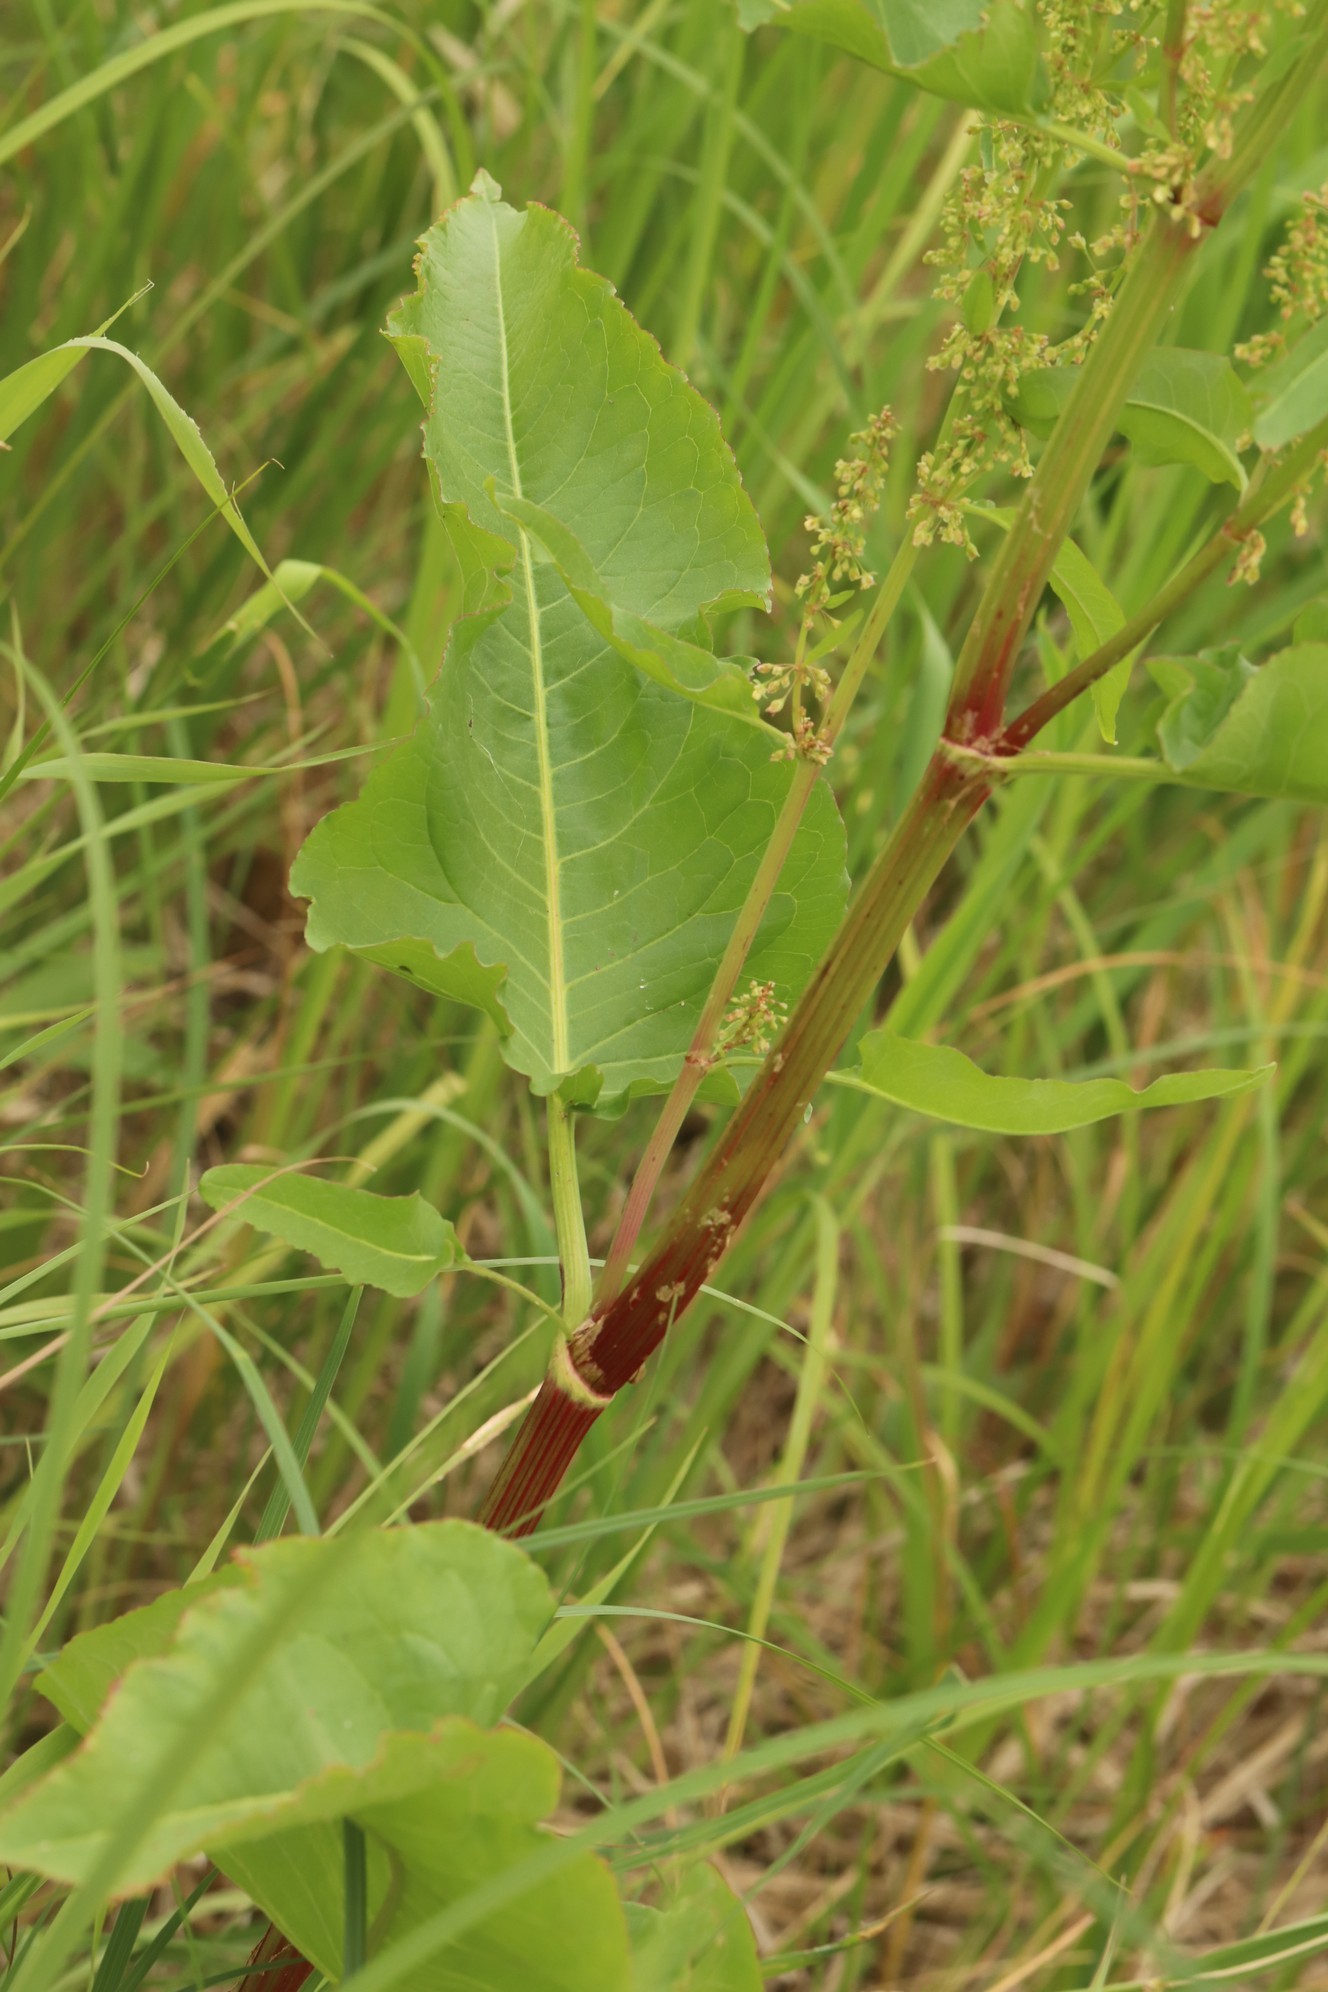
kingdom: Plantae
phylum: Tracheophyta
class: Magnoliopsida
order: Caryophyllales
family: Polygonaceae
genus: Rumex
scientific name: Rumex aquaticus
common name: Scottish dock
